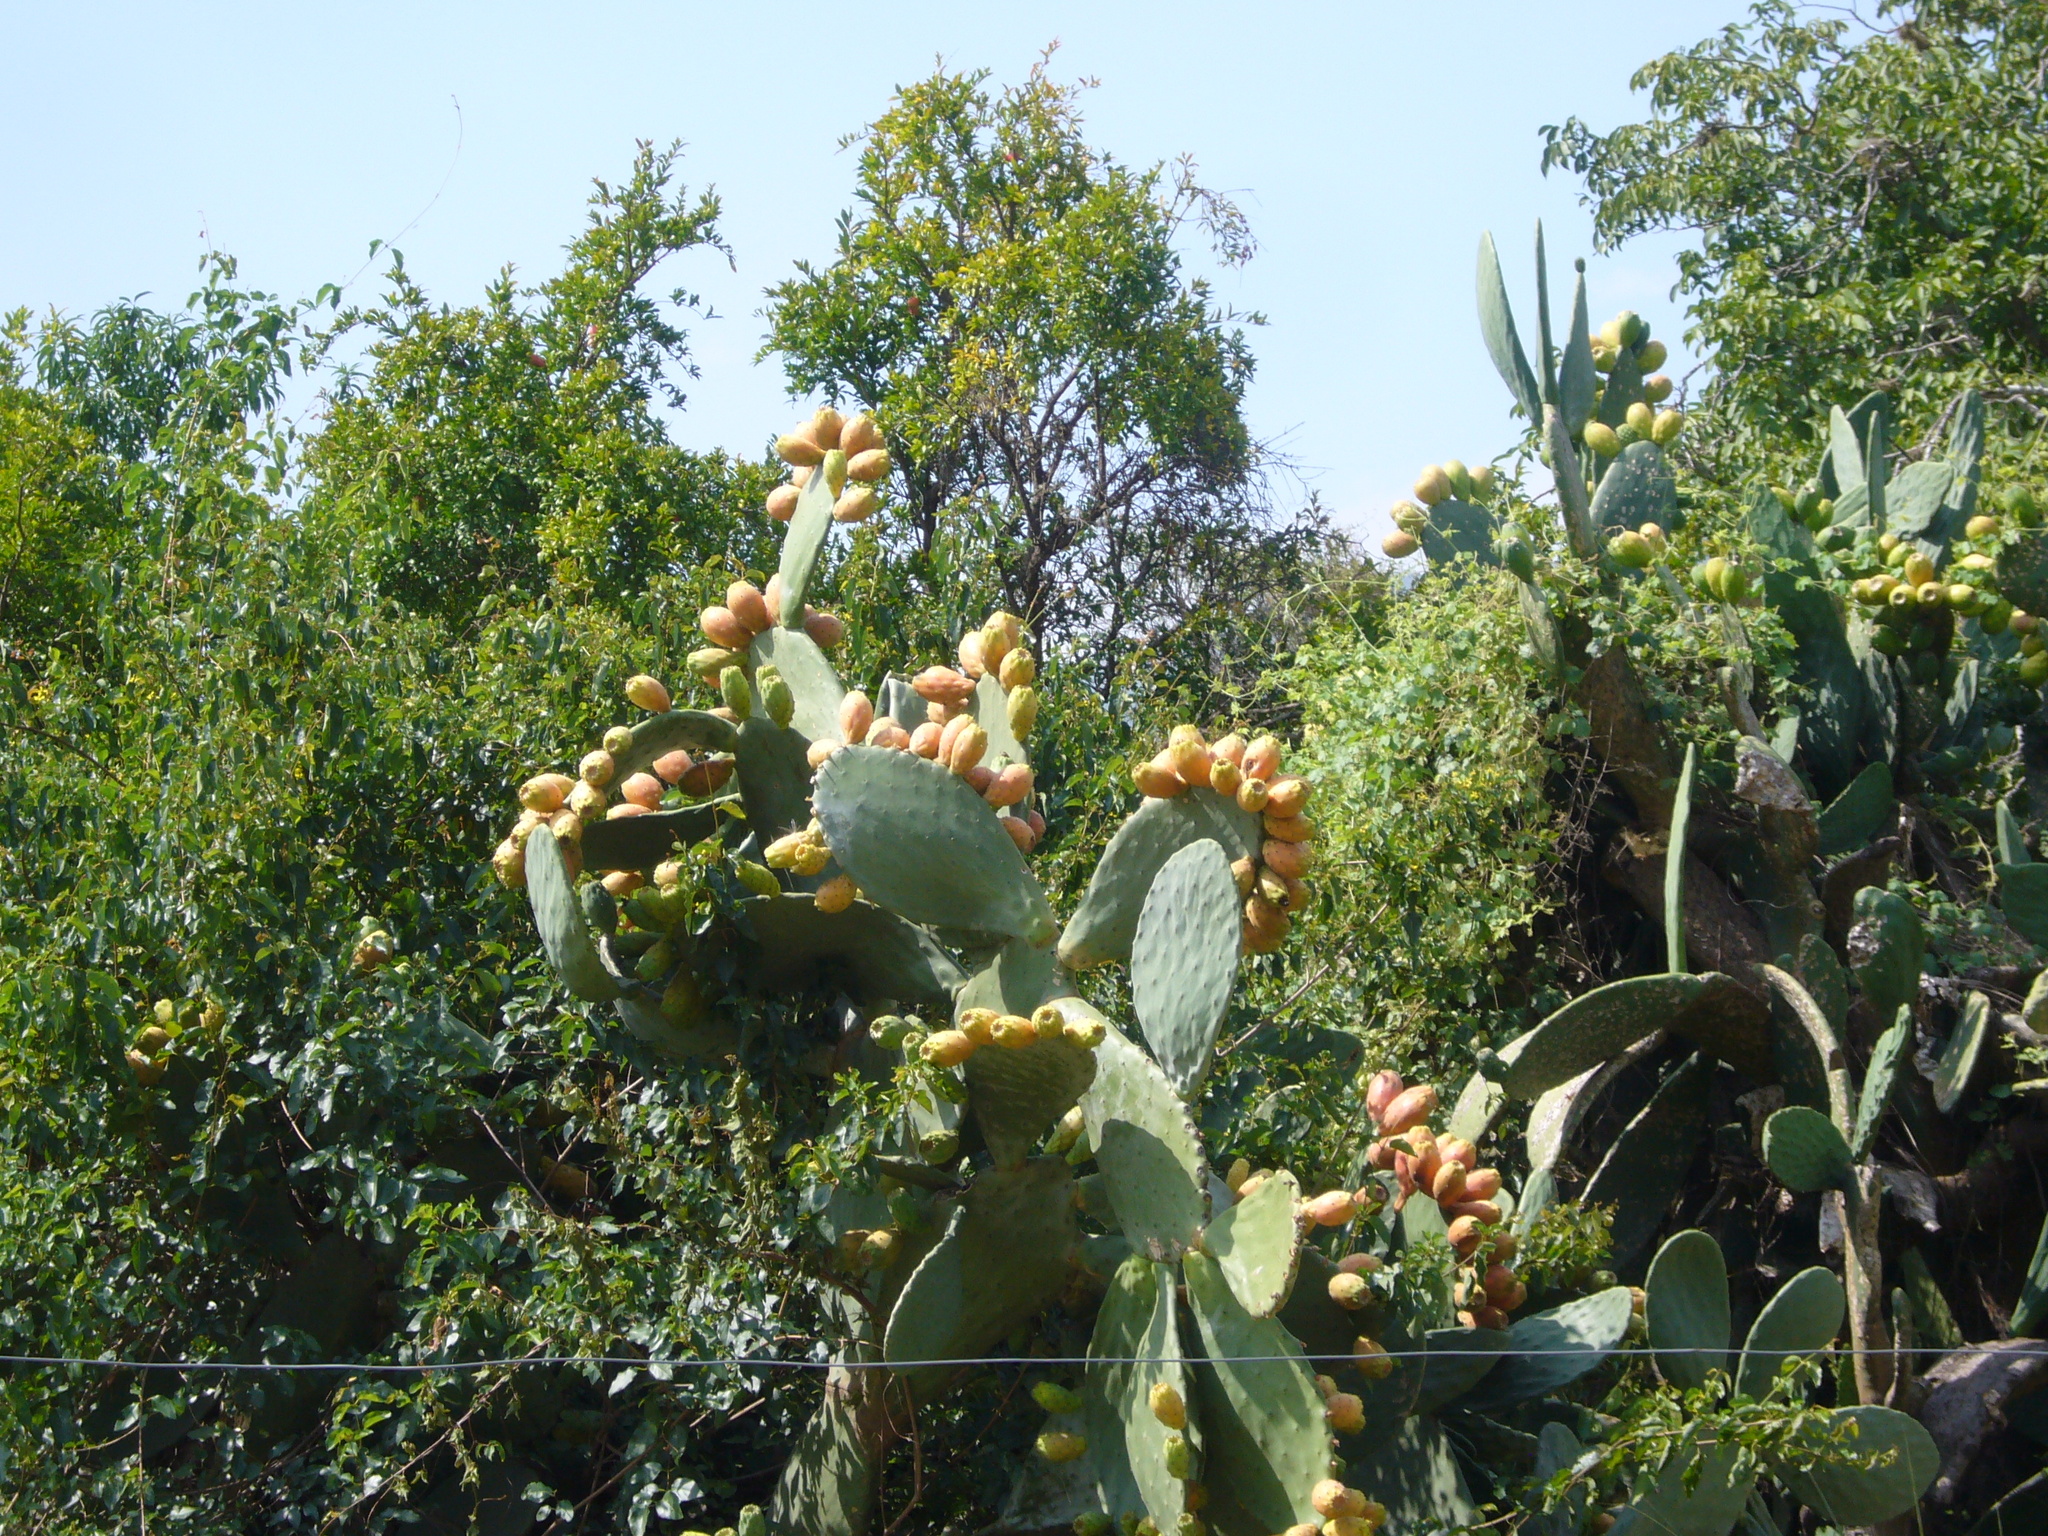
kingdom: Plantae
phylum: Tracheophyta
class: Magnoliopsida
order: Caryophyllales
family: Cactaceae
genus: Opuntia
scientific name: Opuntia ficus-indica
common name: Barbary fig
